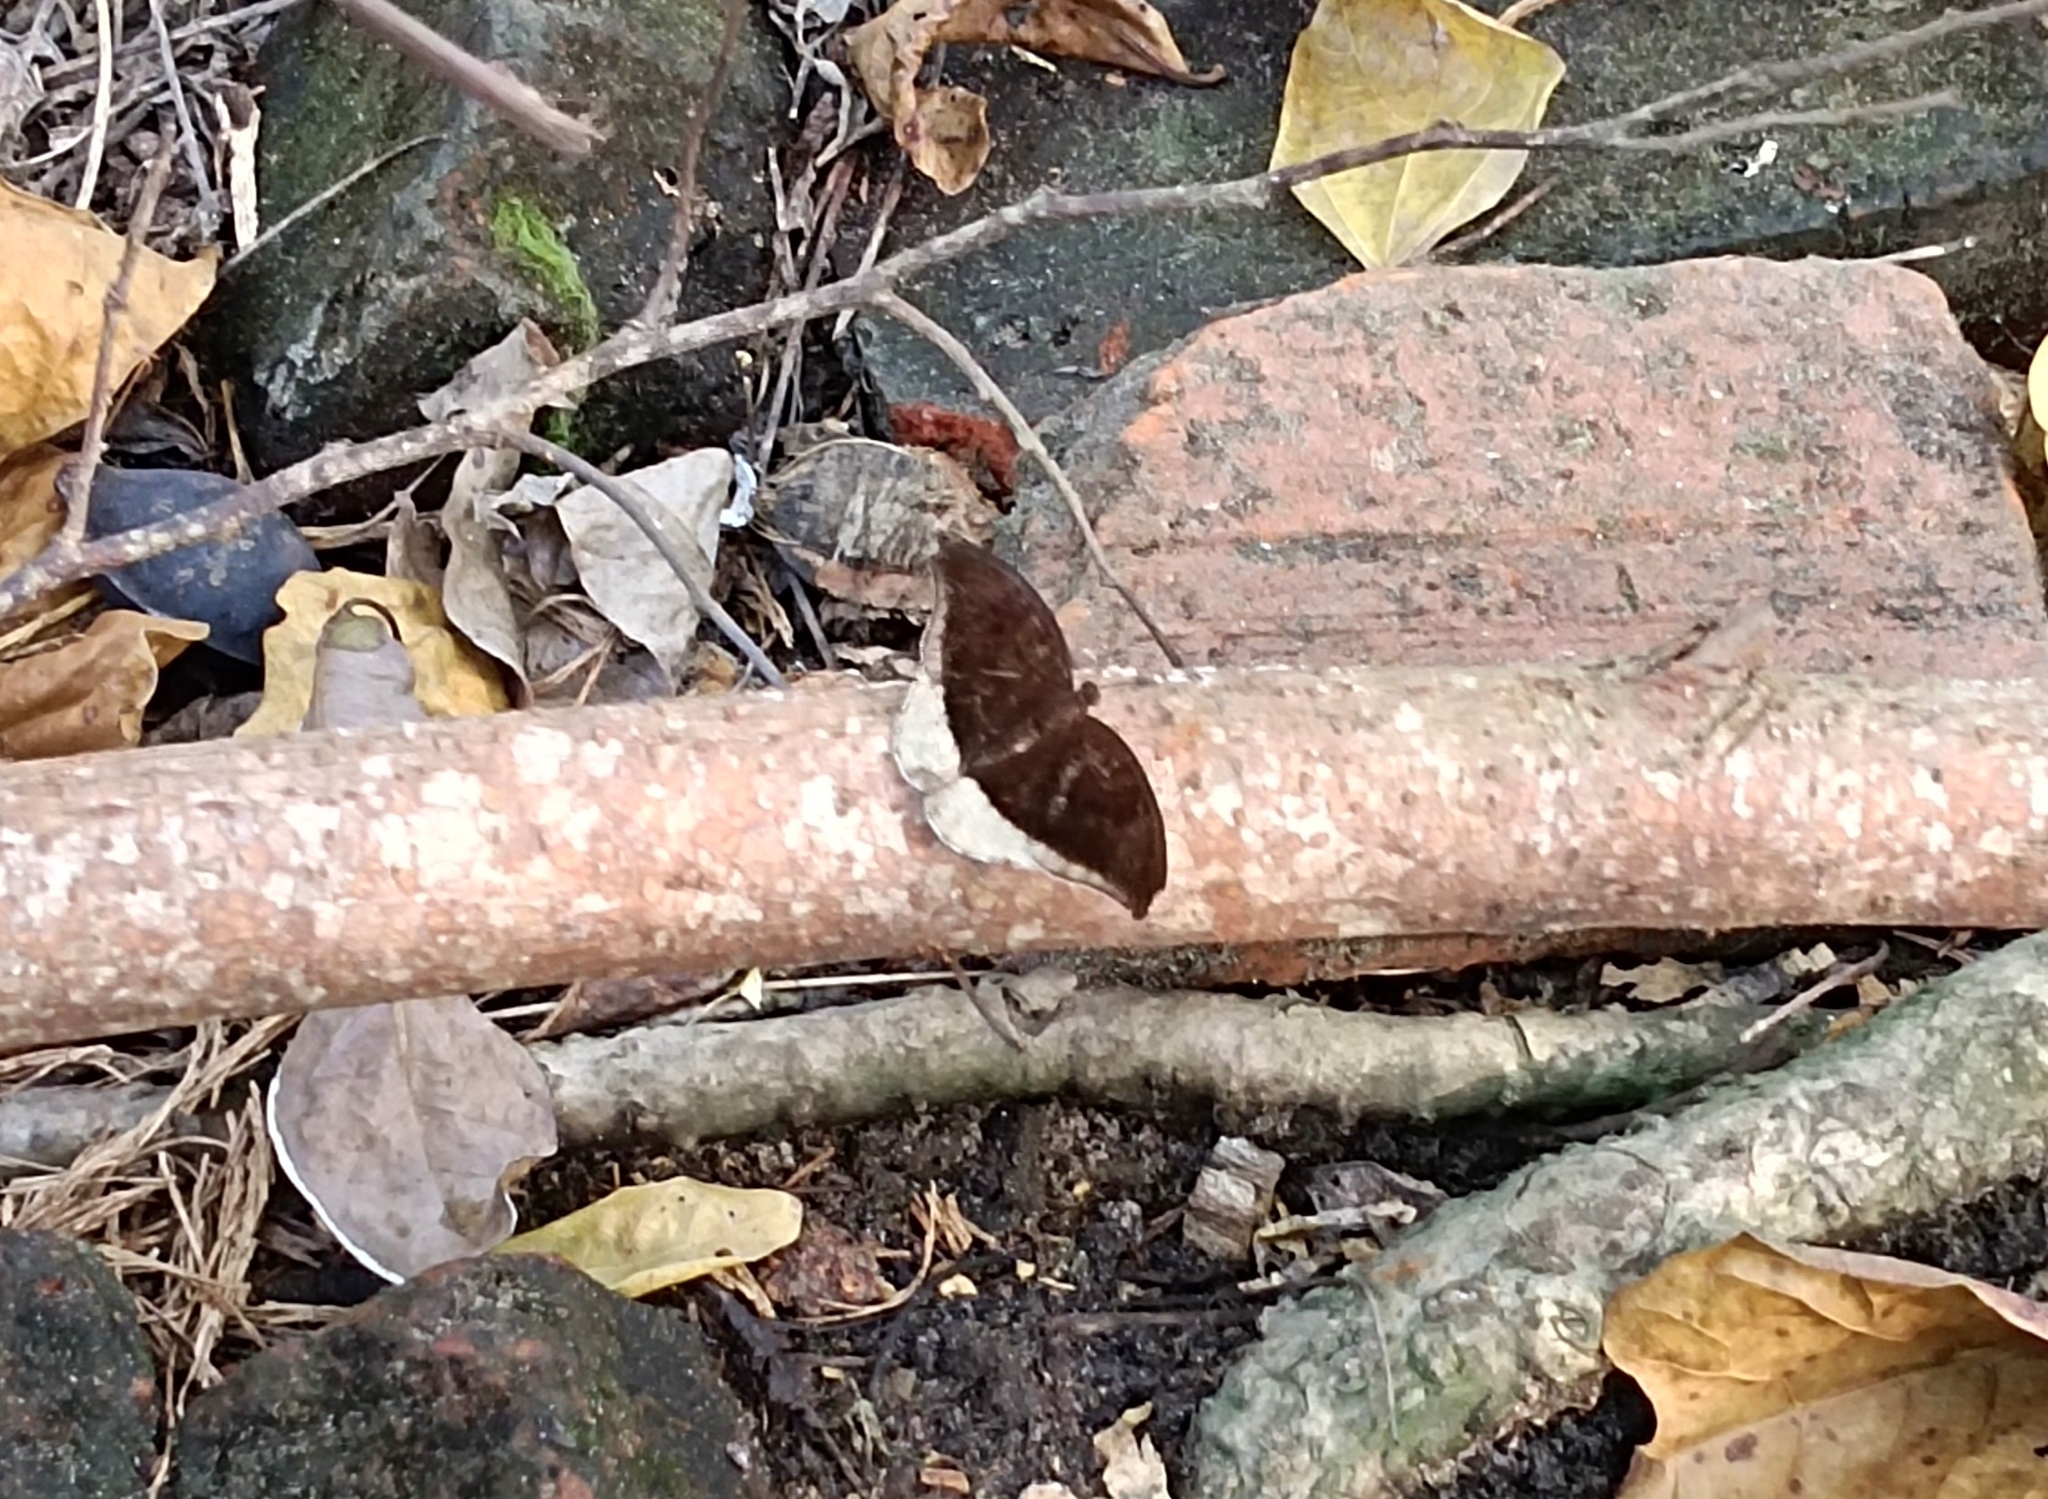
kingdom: Animalia
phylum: Arthropoda
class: Insecta
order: Lepidoptera
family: Nymphalidae
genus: Tanaecia
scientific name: Tanaecia lepidea
